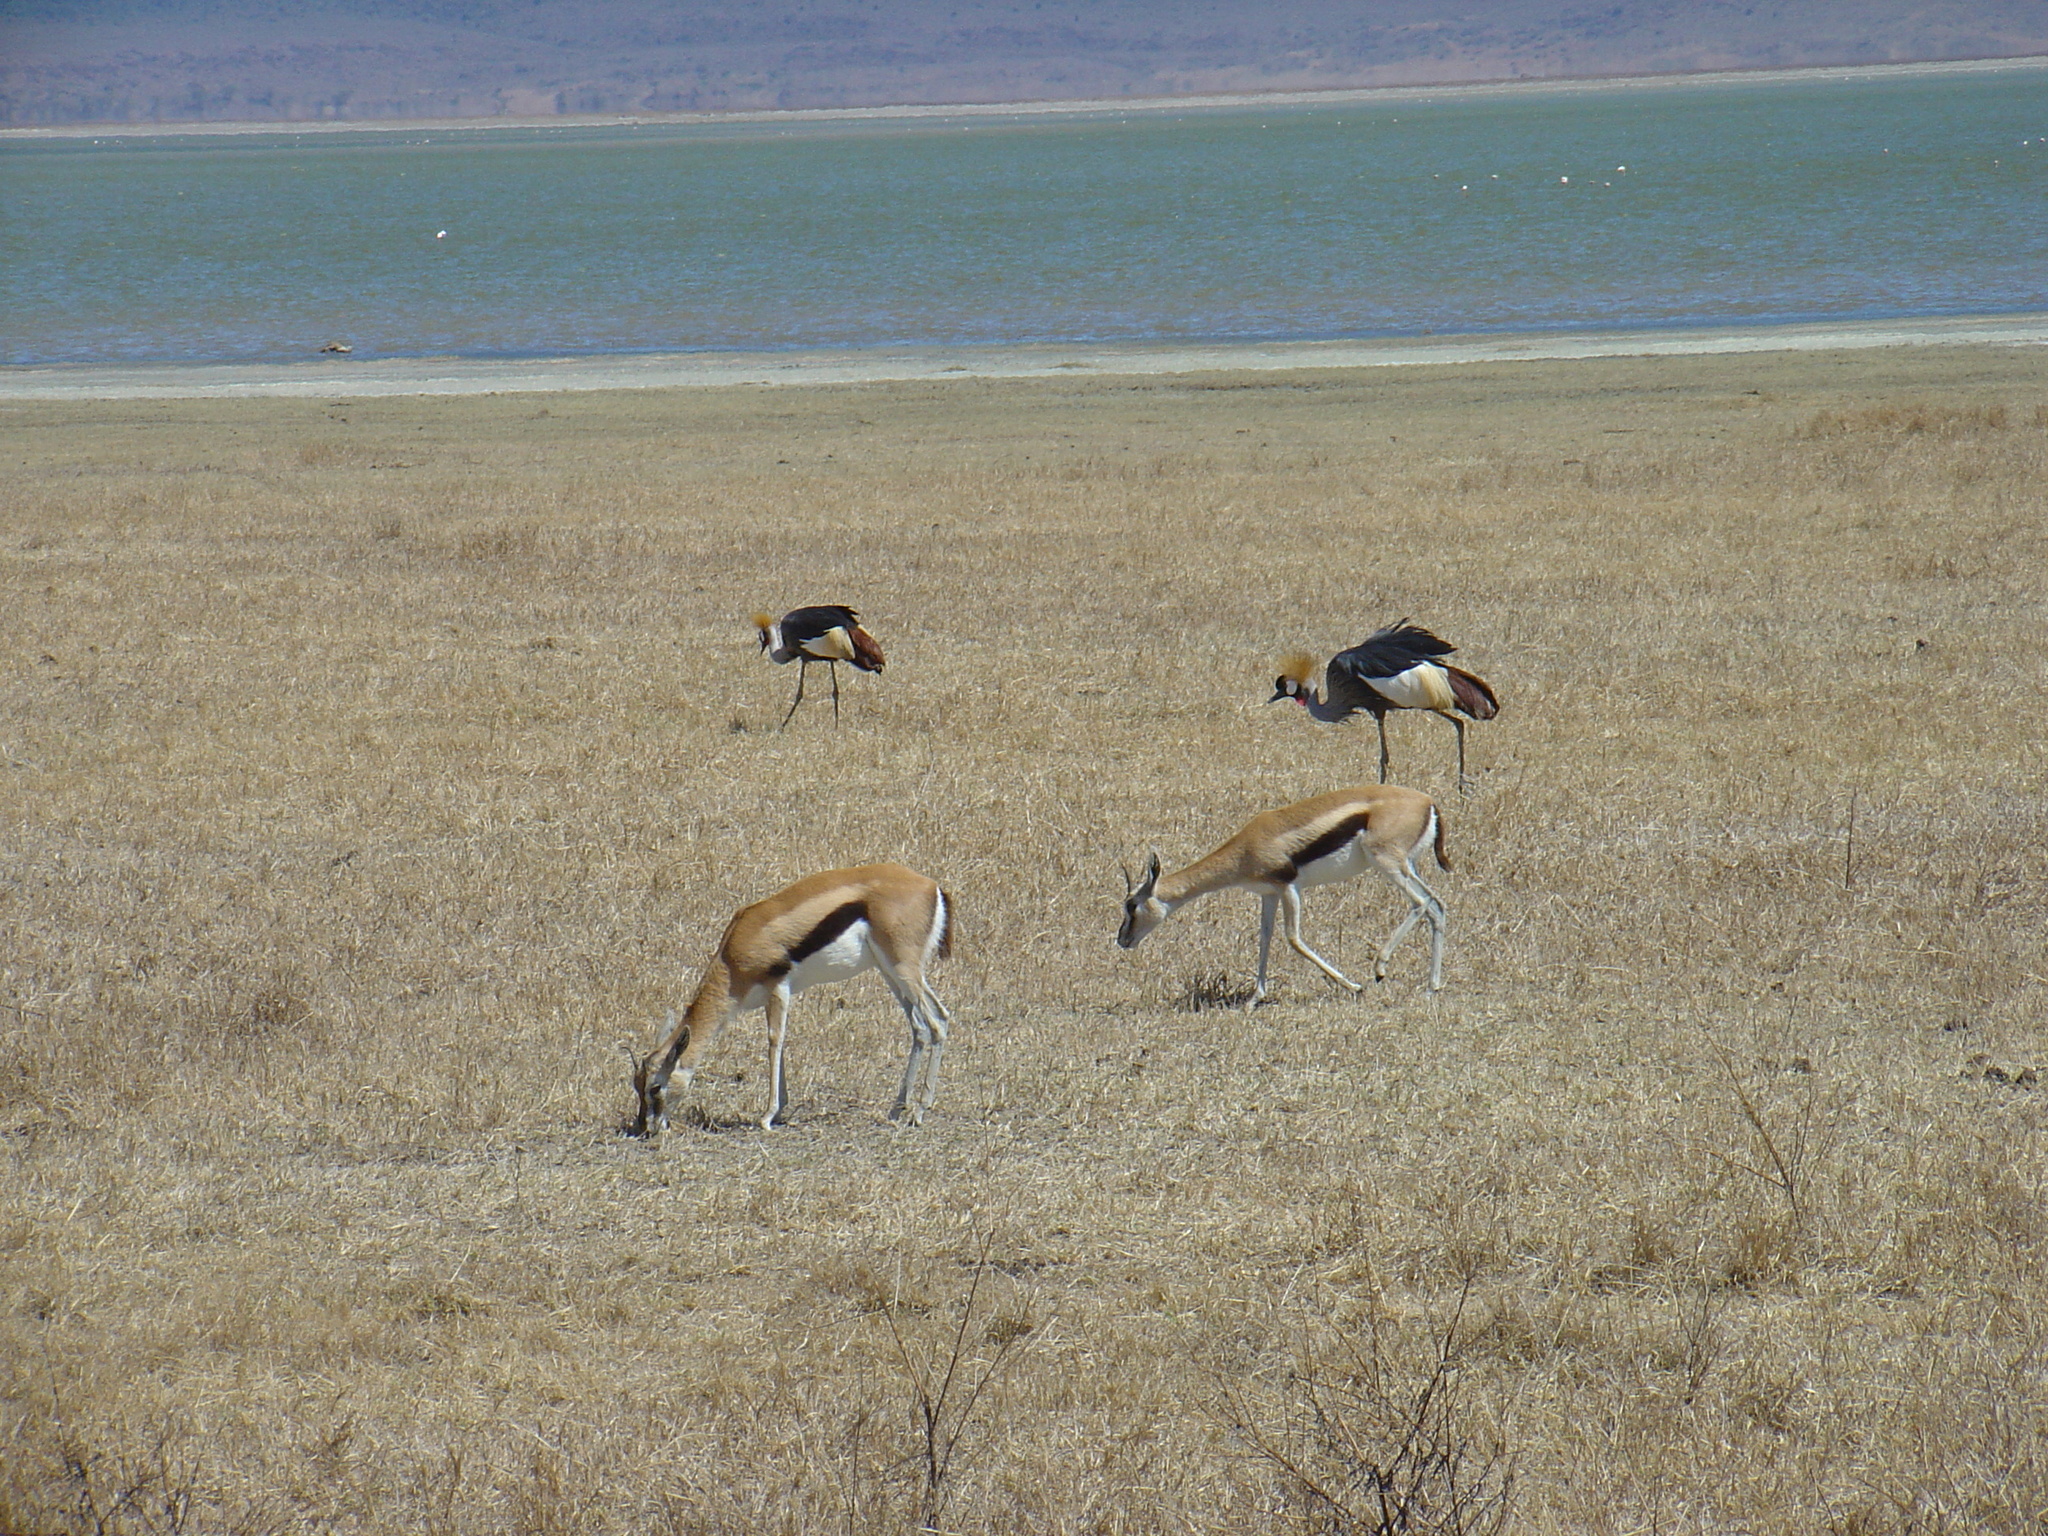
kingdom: Animalia
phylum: Chordata
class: Aves
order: Gruiformes
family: Gruidae
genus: Balearica
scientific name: Balearica regulorum
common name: Grey crowned crane
